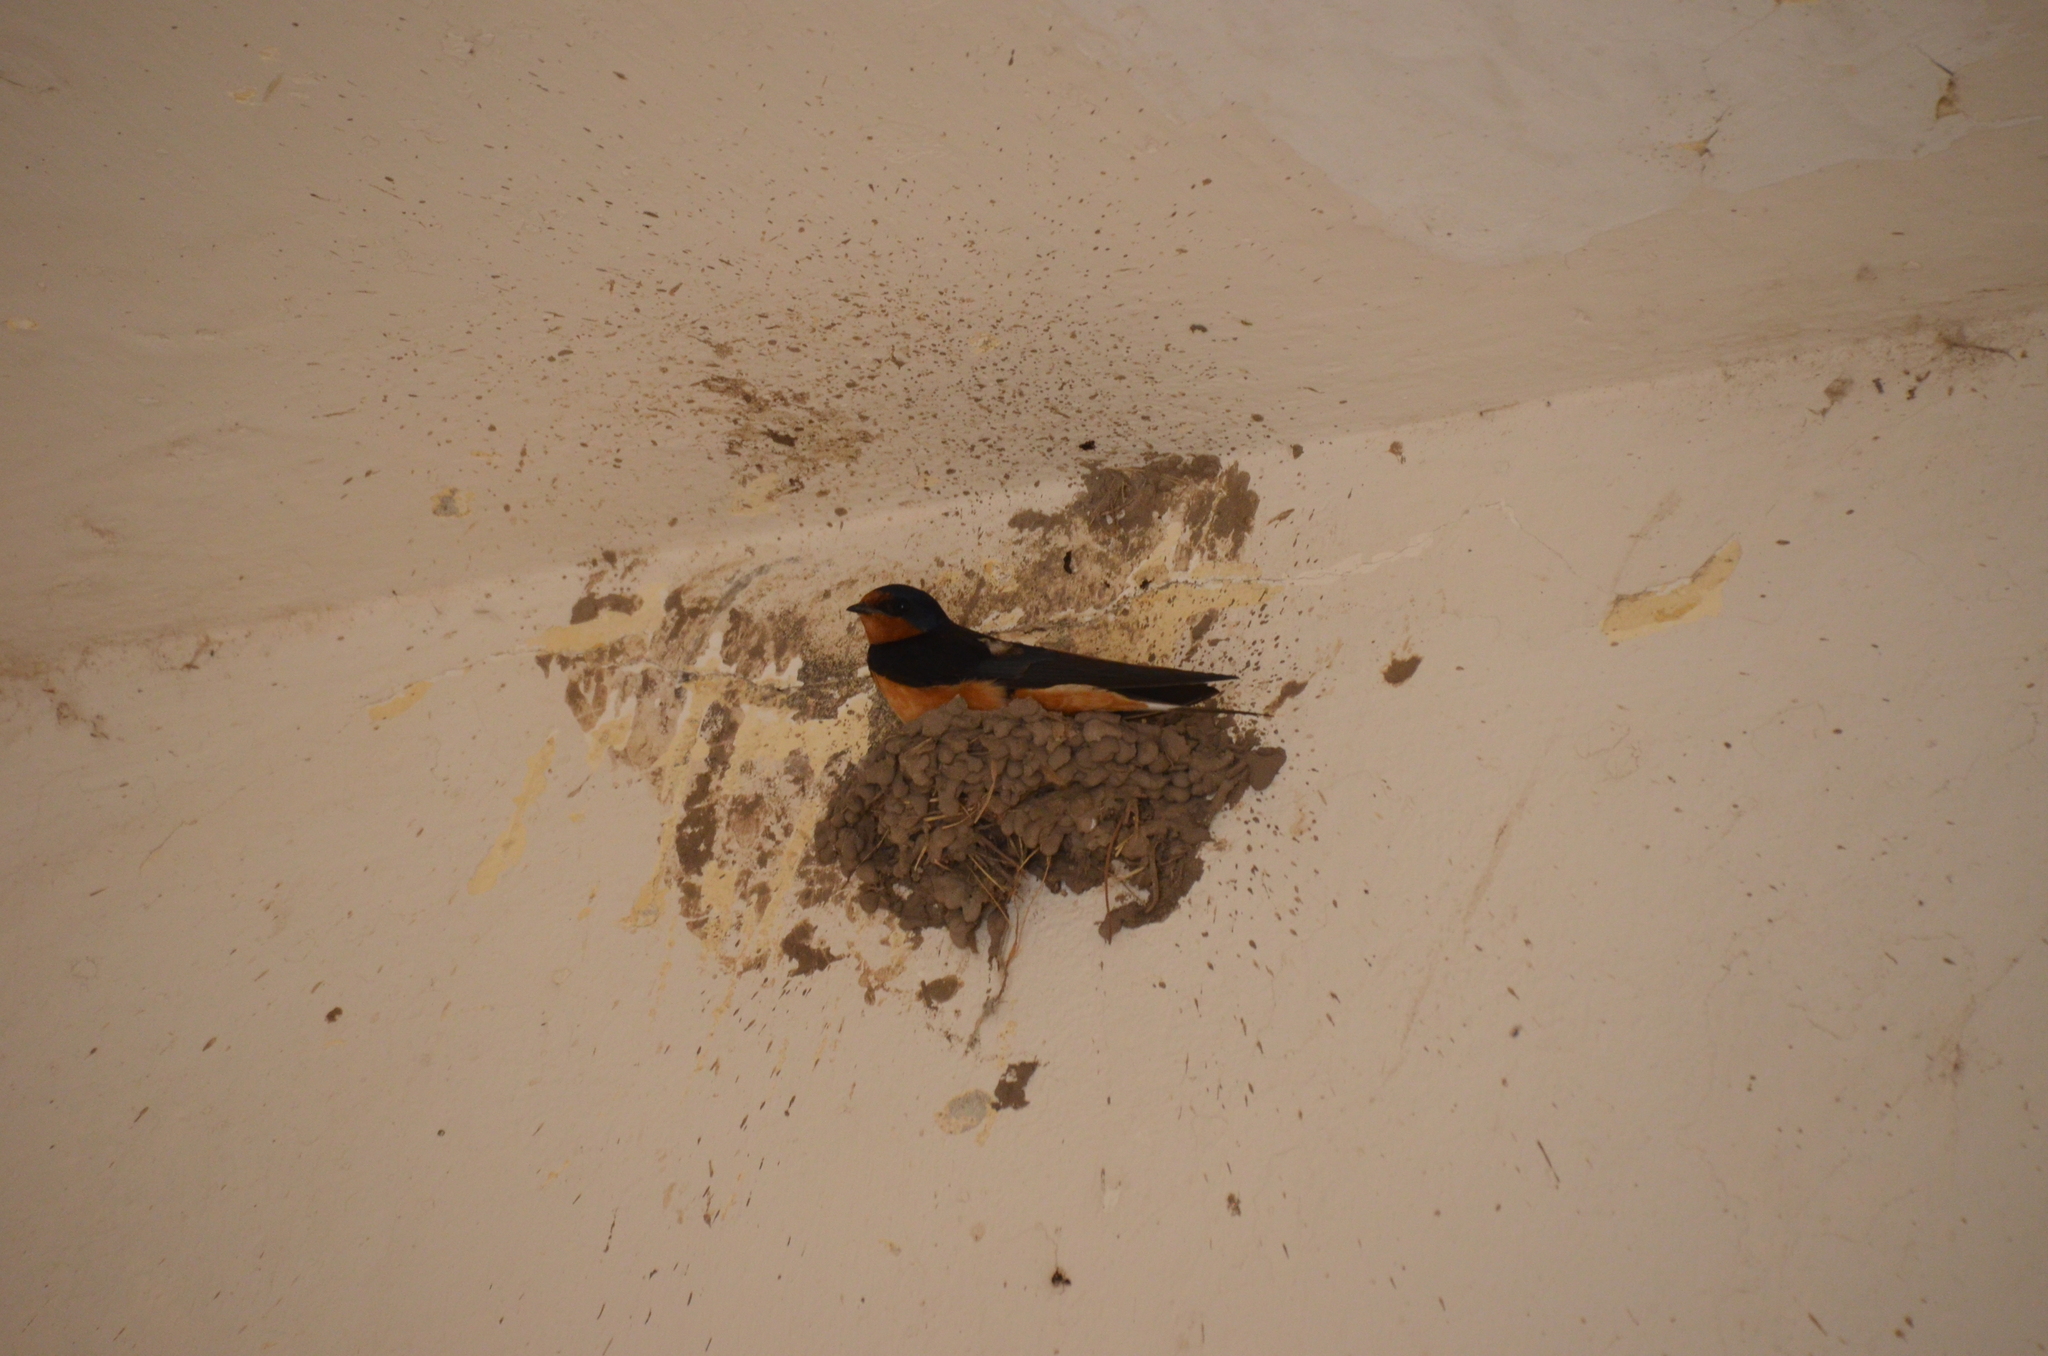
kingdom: Animalia
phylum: Chordata
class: Aves
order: Passeriformes
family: Hirundinidae
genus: Hirundo
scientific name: Hirundo rustica
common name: Barn swallow
